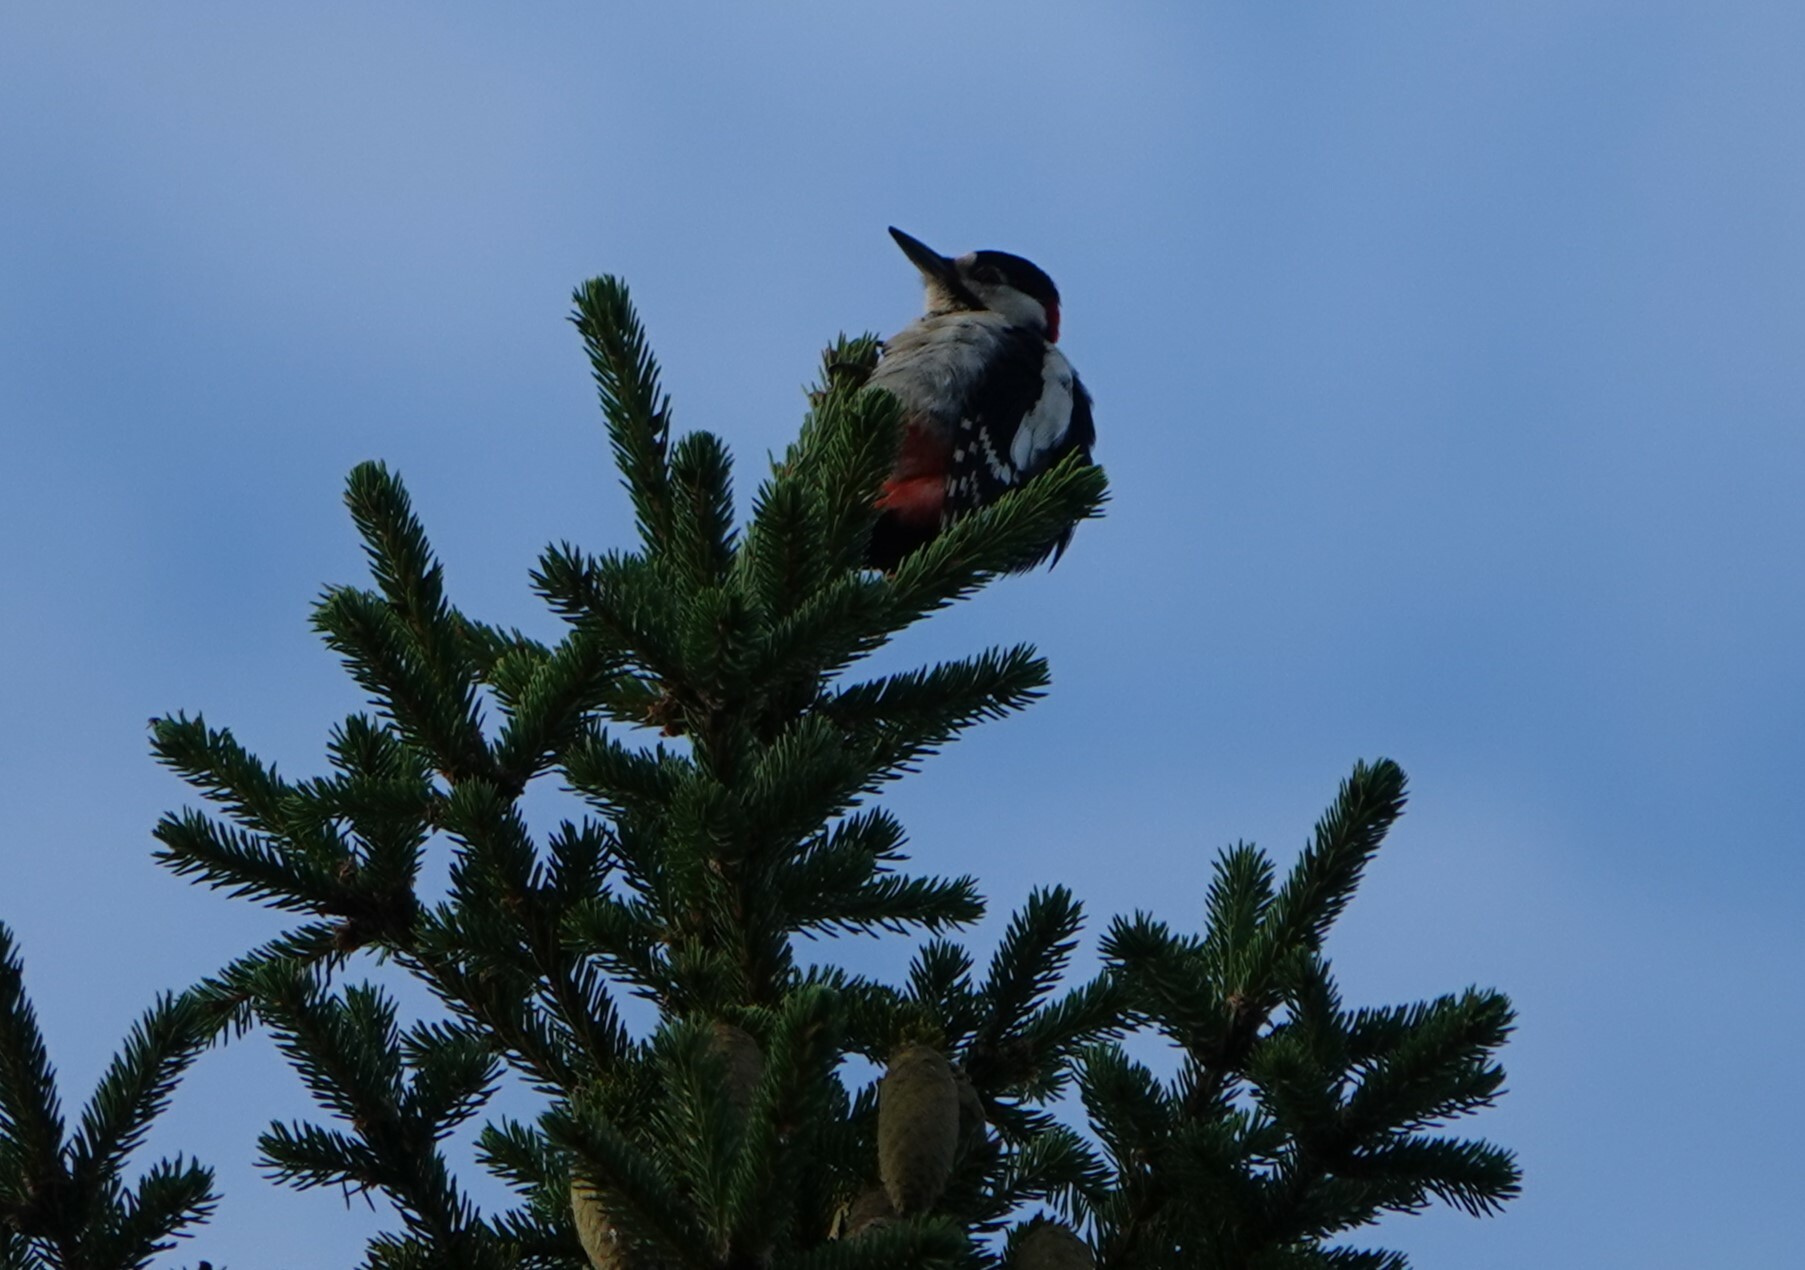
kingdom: Animalia
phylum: Chordata
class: Aves
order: Piciformes
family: Picidae
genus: Dendrocopos
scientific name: Dendrocopos major
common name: Great spotted woodpecker
